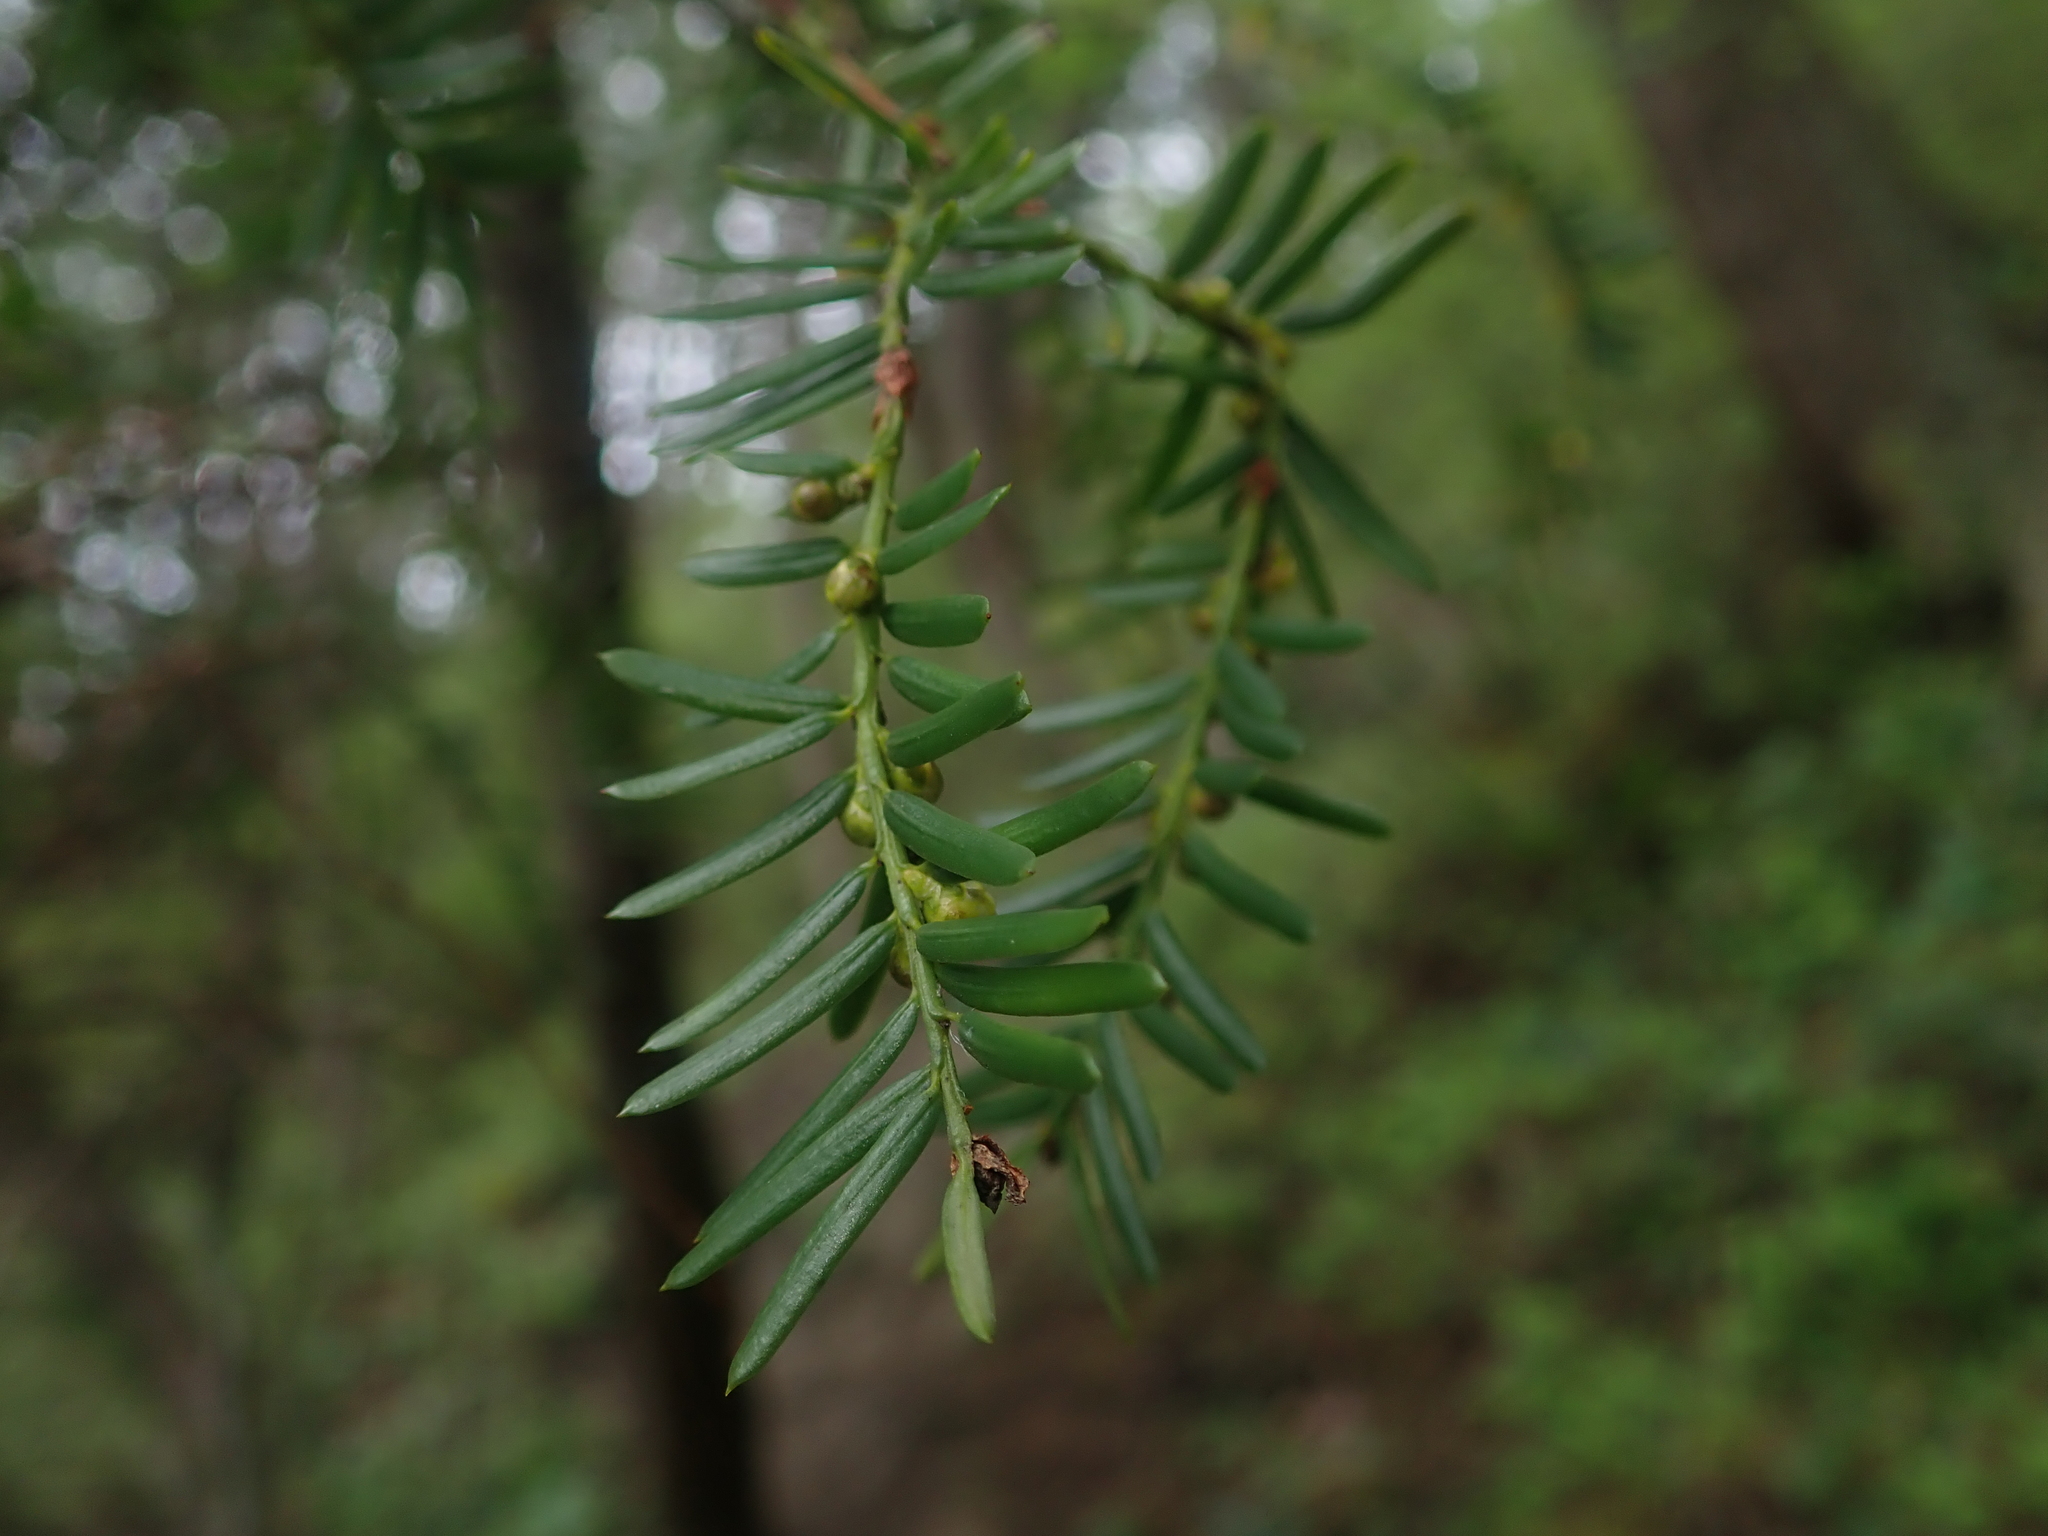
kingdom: Plantae
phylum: Tracheophyta
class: Pinopsida
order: Pinales
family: Taxaceae
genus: Taxus
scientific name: Taxus brevifolia
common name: Pacific yew
